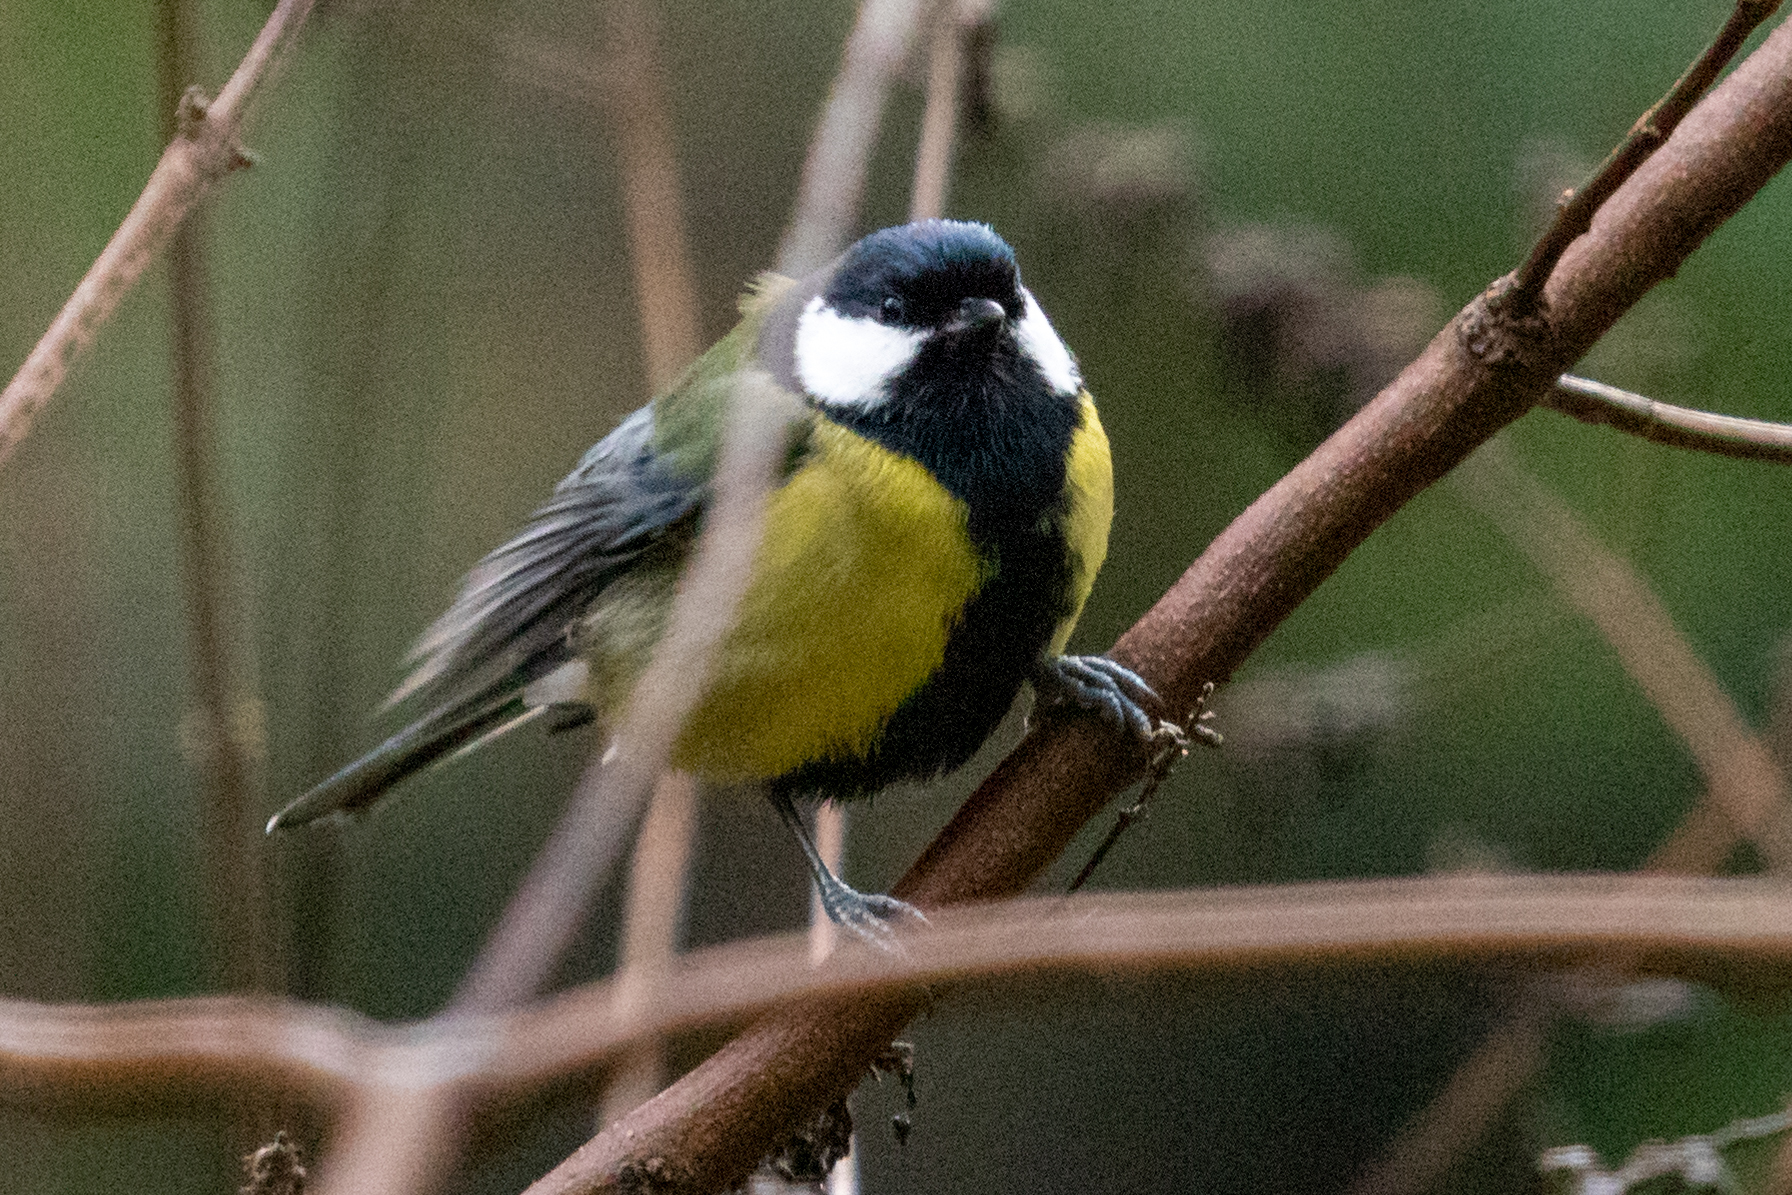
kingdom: Animalia
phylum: Chordata
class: Aves
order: Passeriformes
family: Paridae
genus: Parus
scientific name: Parus major
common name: Great tit
